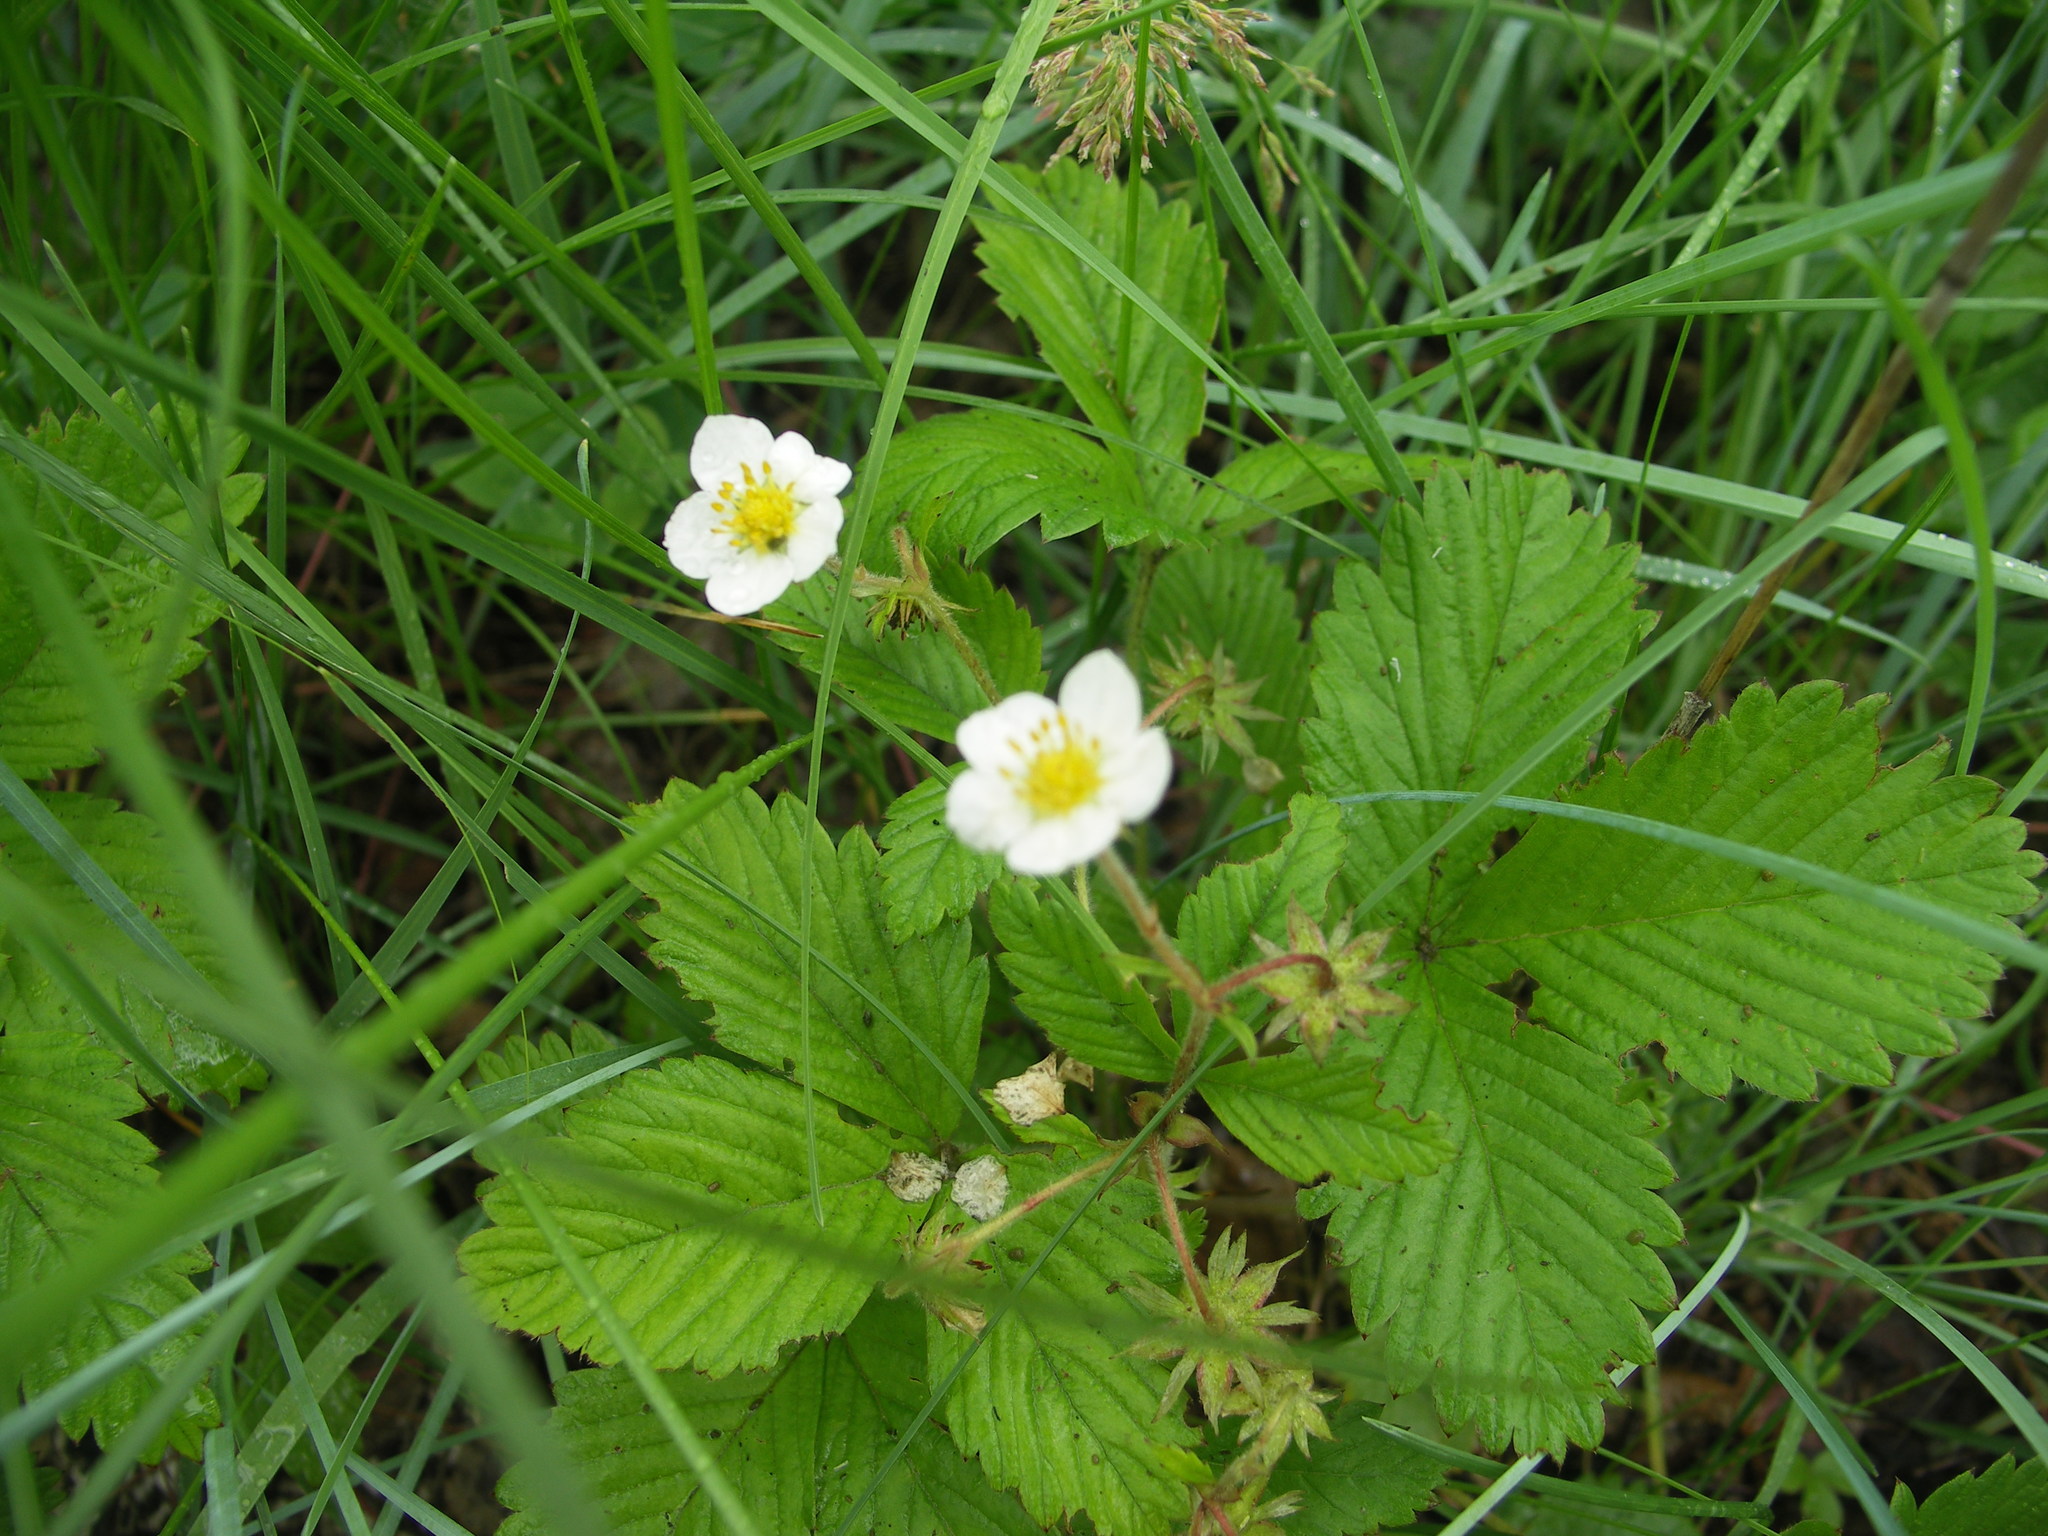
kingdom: Plantae
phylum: Tracheophyta
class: Magnoliopsida
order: Rosales
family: Rosaceae
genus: Fragaria
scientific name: Fragaria orientalis
